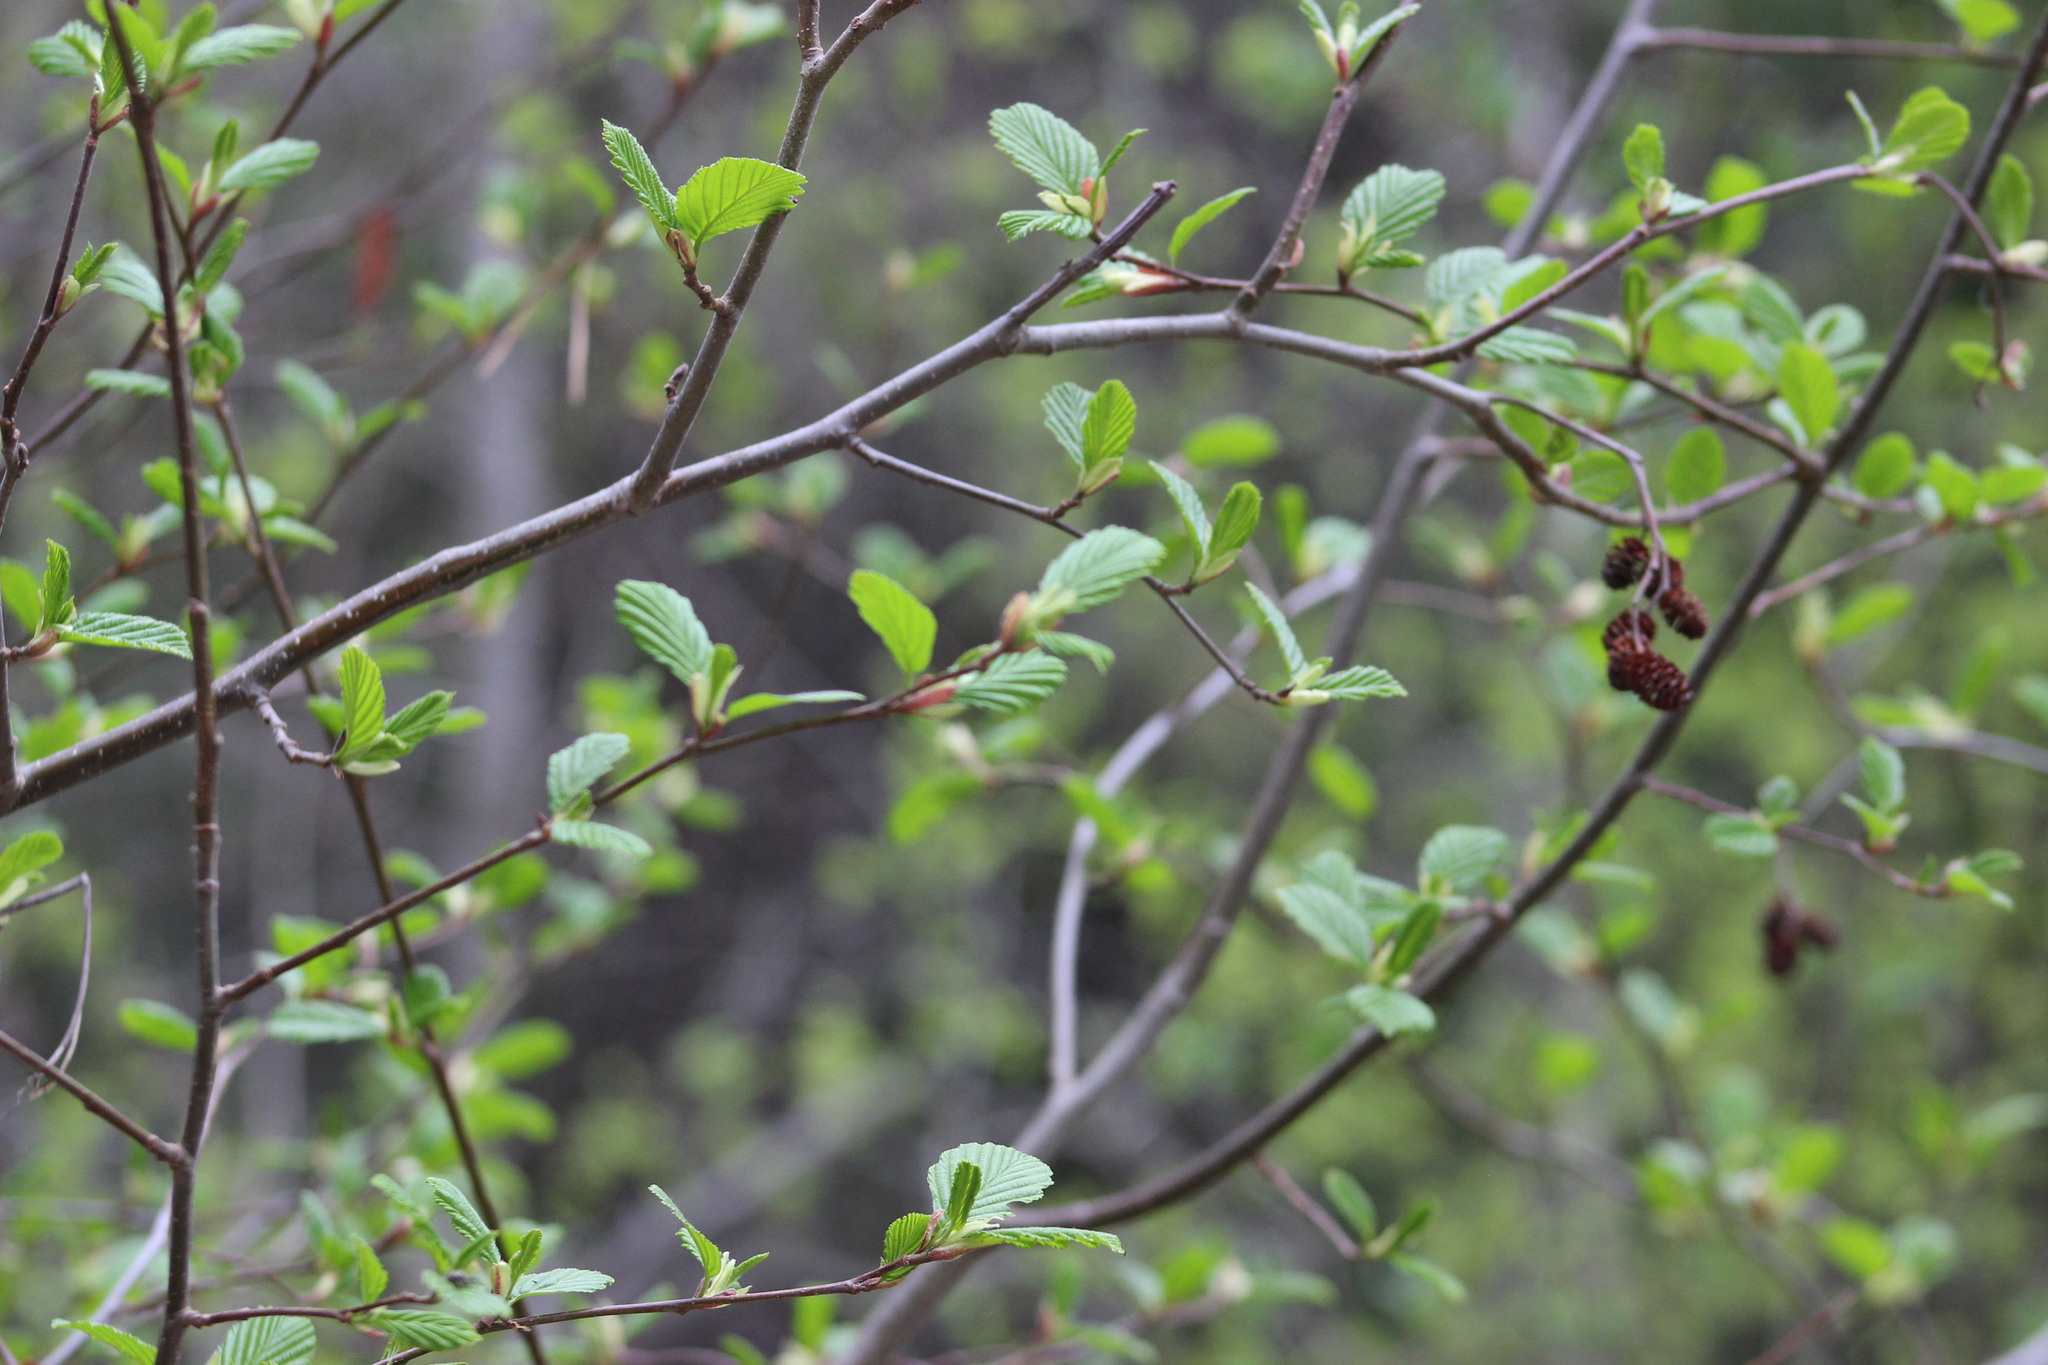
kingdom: Plantae
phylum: Tracheophyta
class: Magnoliopsida
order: Fagales
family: Betulaceae
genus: Alnus
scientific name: Alnus incana
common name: Grey alder
